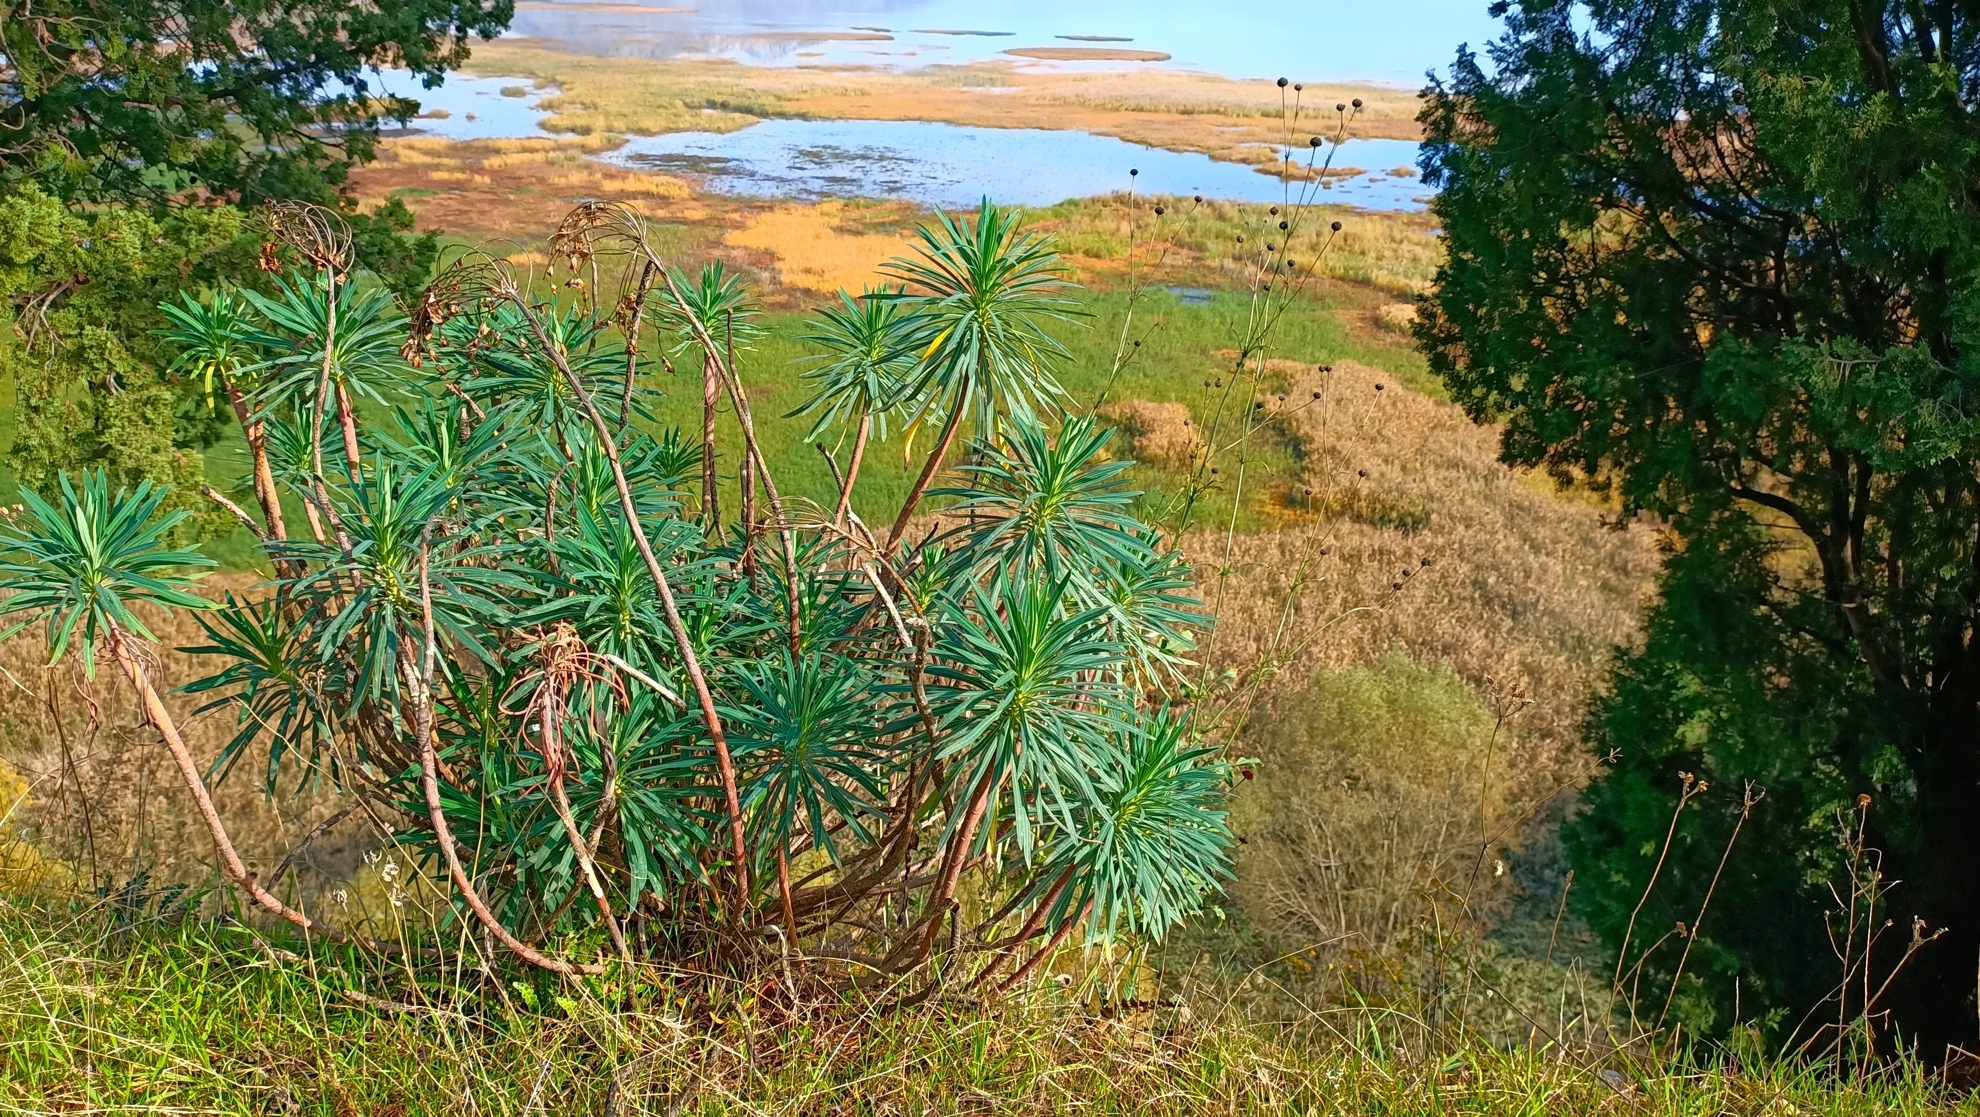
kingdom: Plantae
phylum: Tracheophyta
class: Magnoliopsida
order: Malpighiales
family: Euphorbiaceae
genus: Euphorbia
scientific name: Euphorbia characias
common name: Mediterranean spurge
